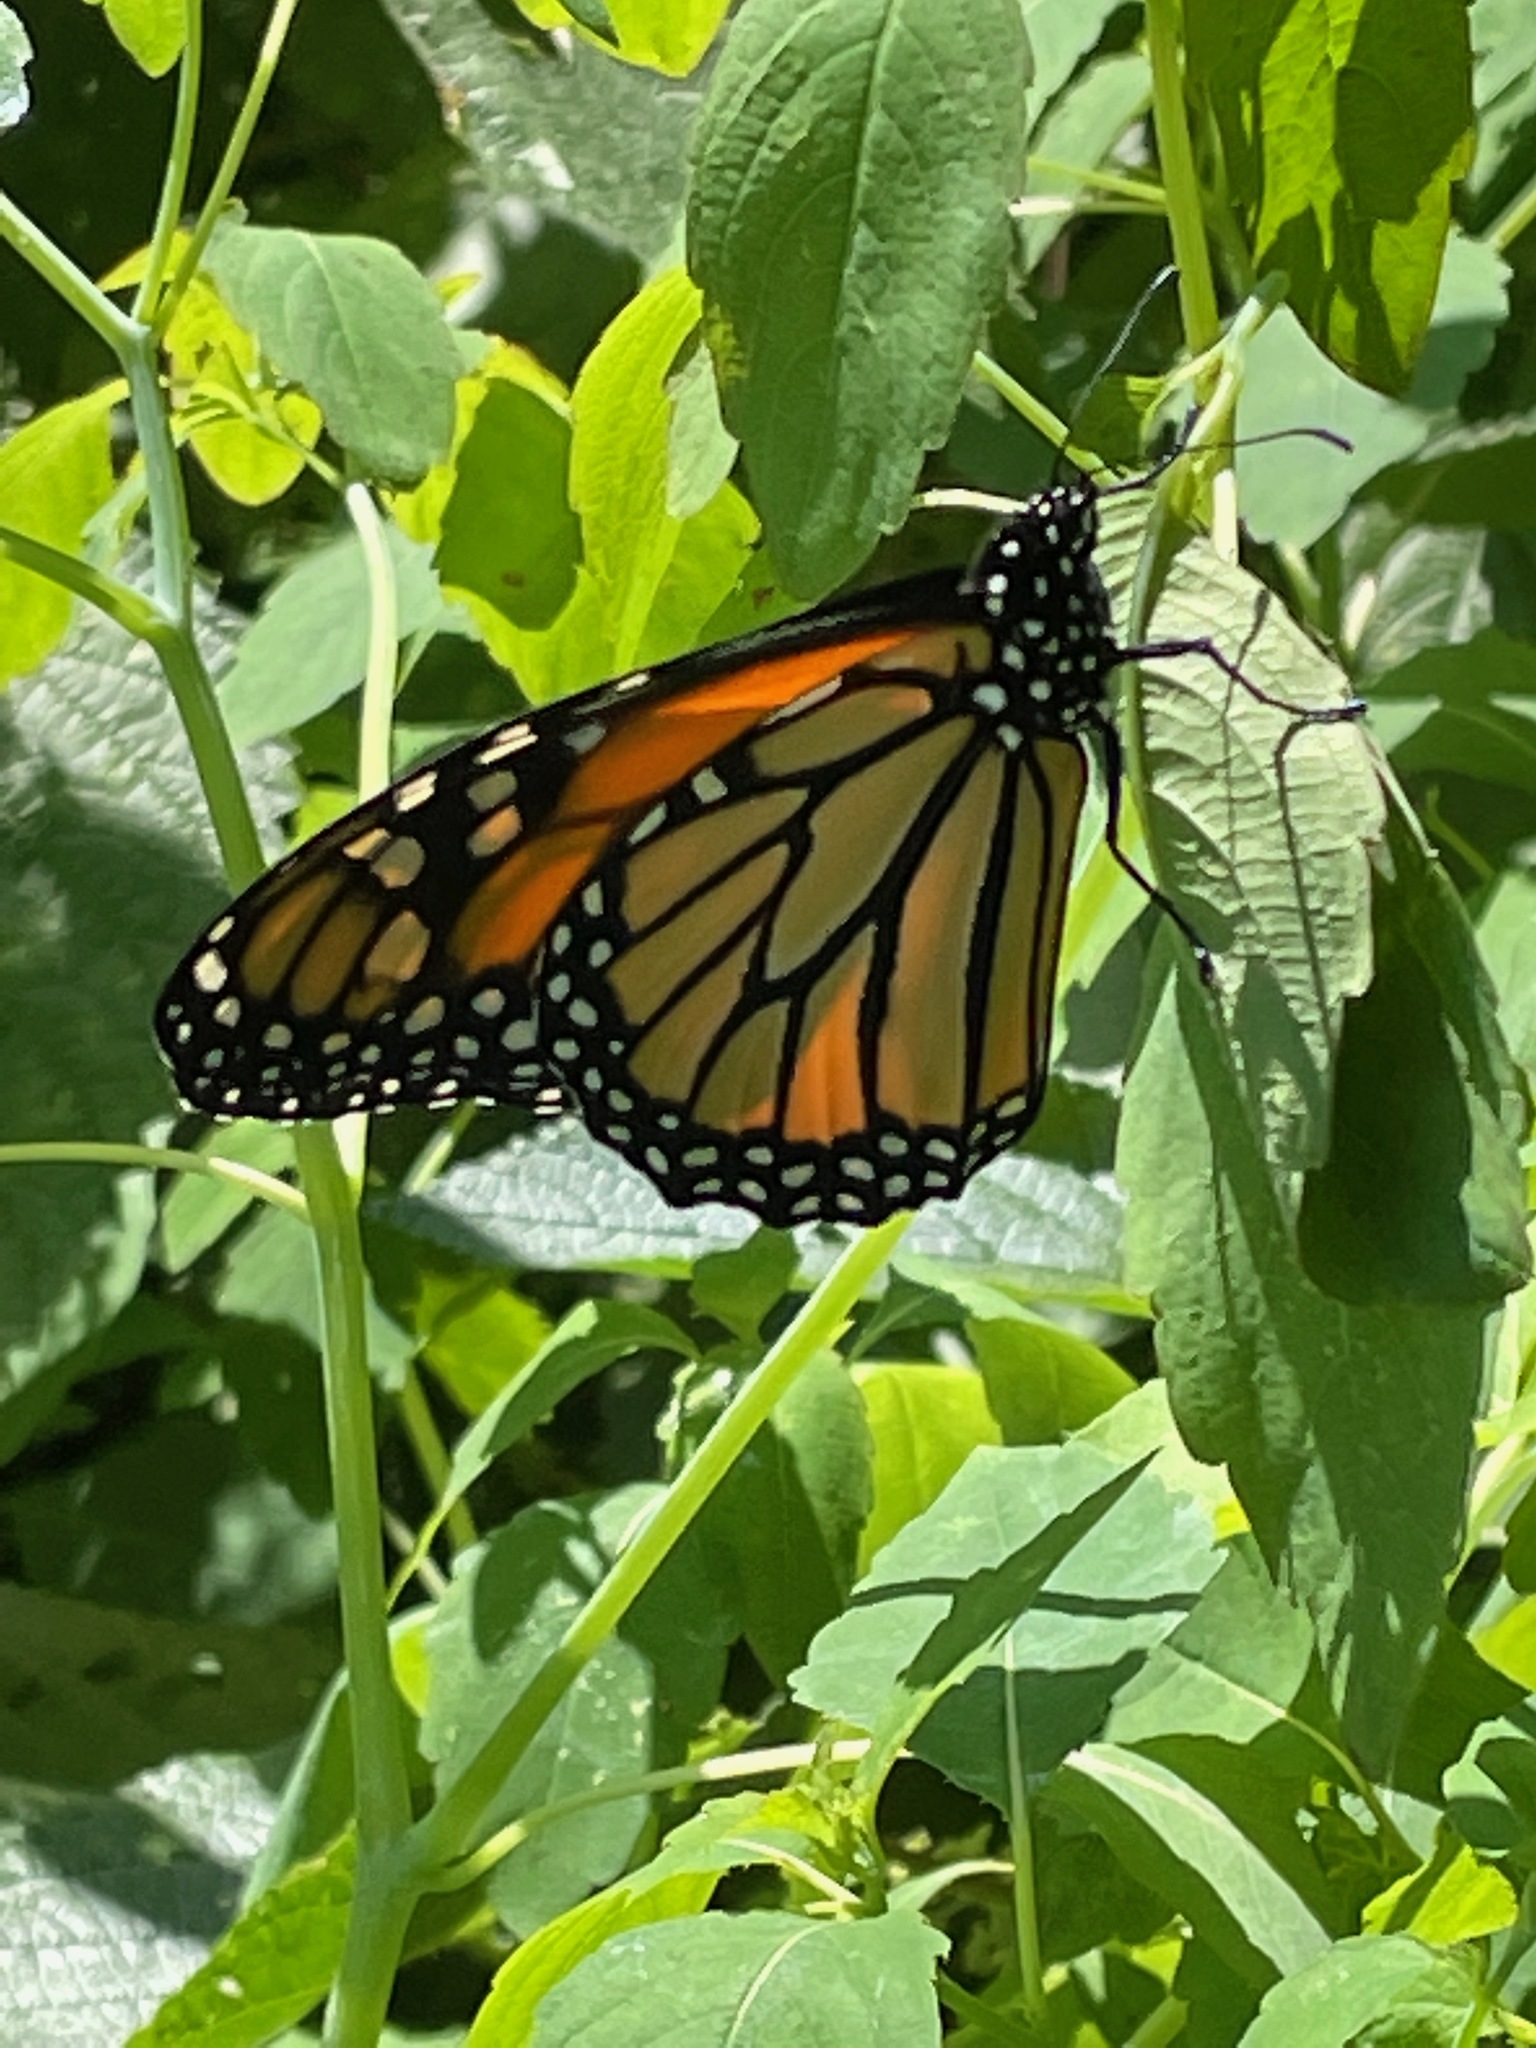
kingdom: Animalia
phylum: Arthropoda
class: Insecta
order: Lepidoptera
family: Nymphalidae
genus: Danaus
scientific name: Danaus plexippus
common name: Monarch
